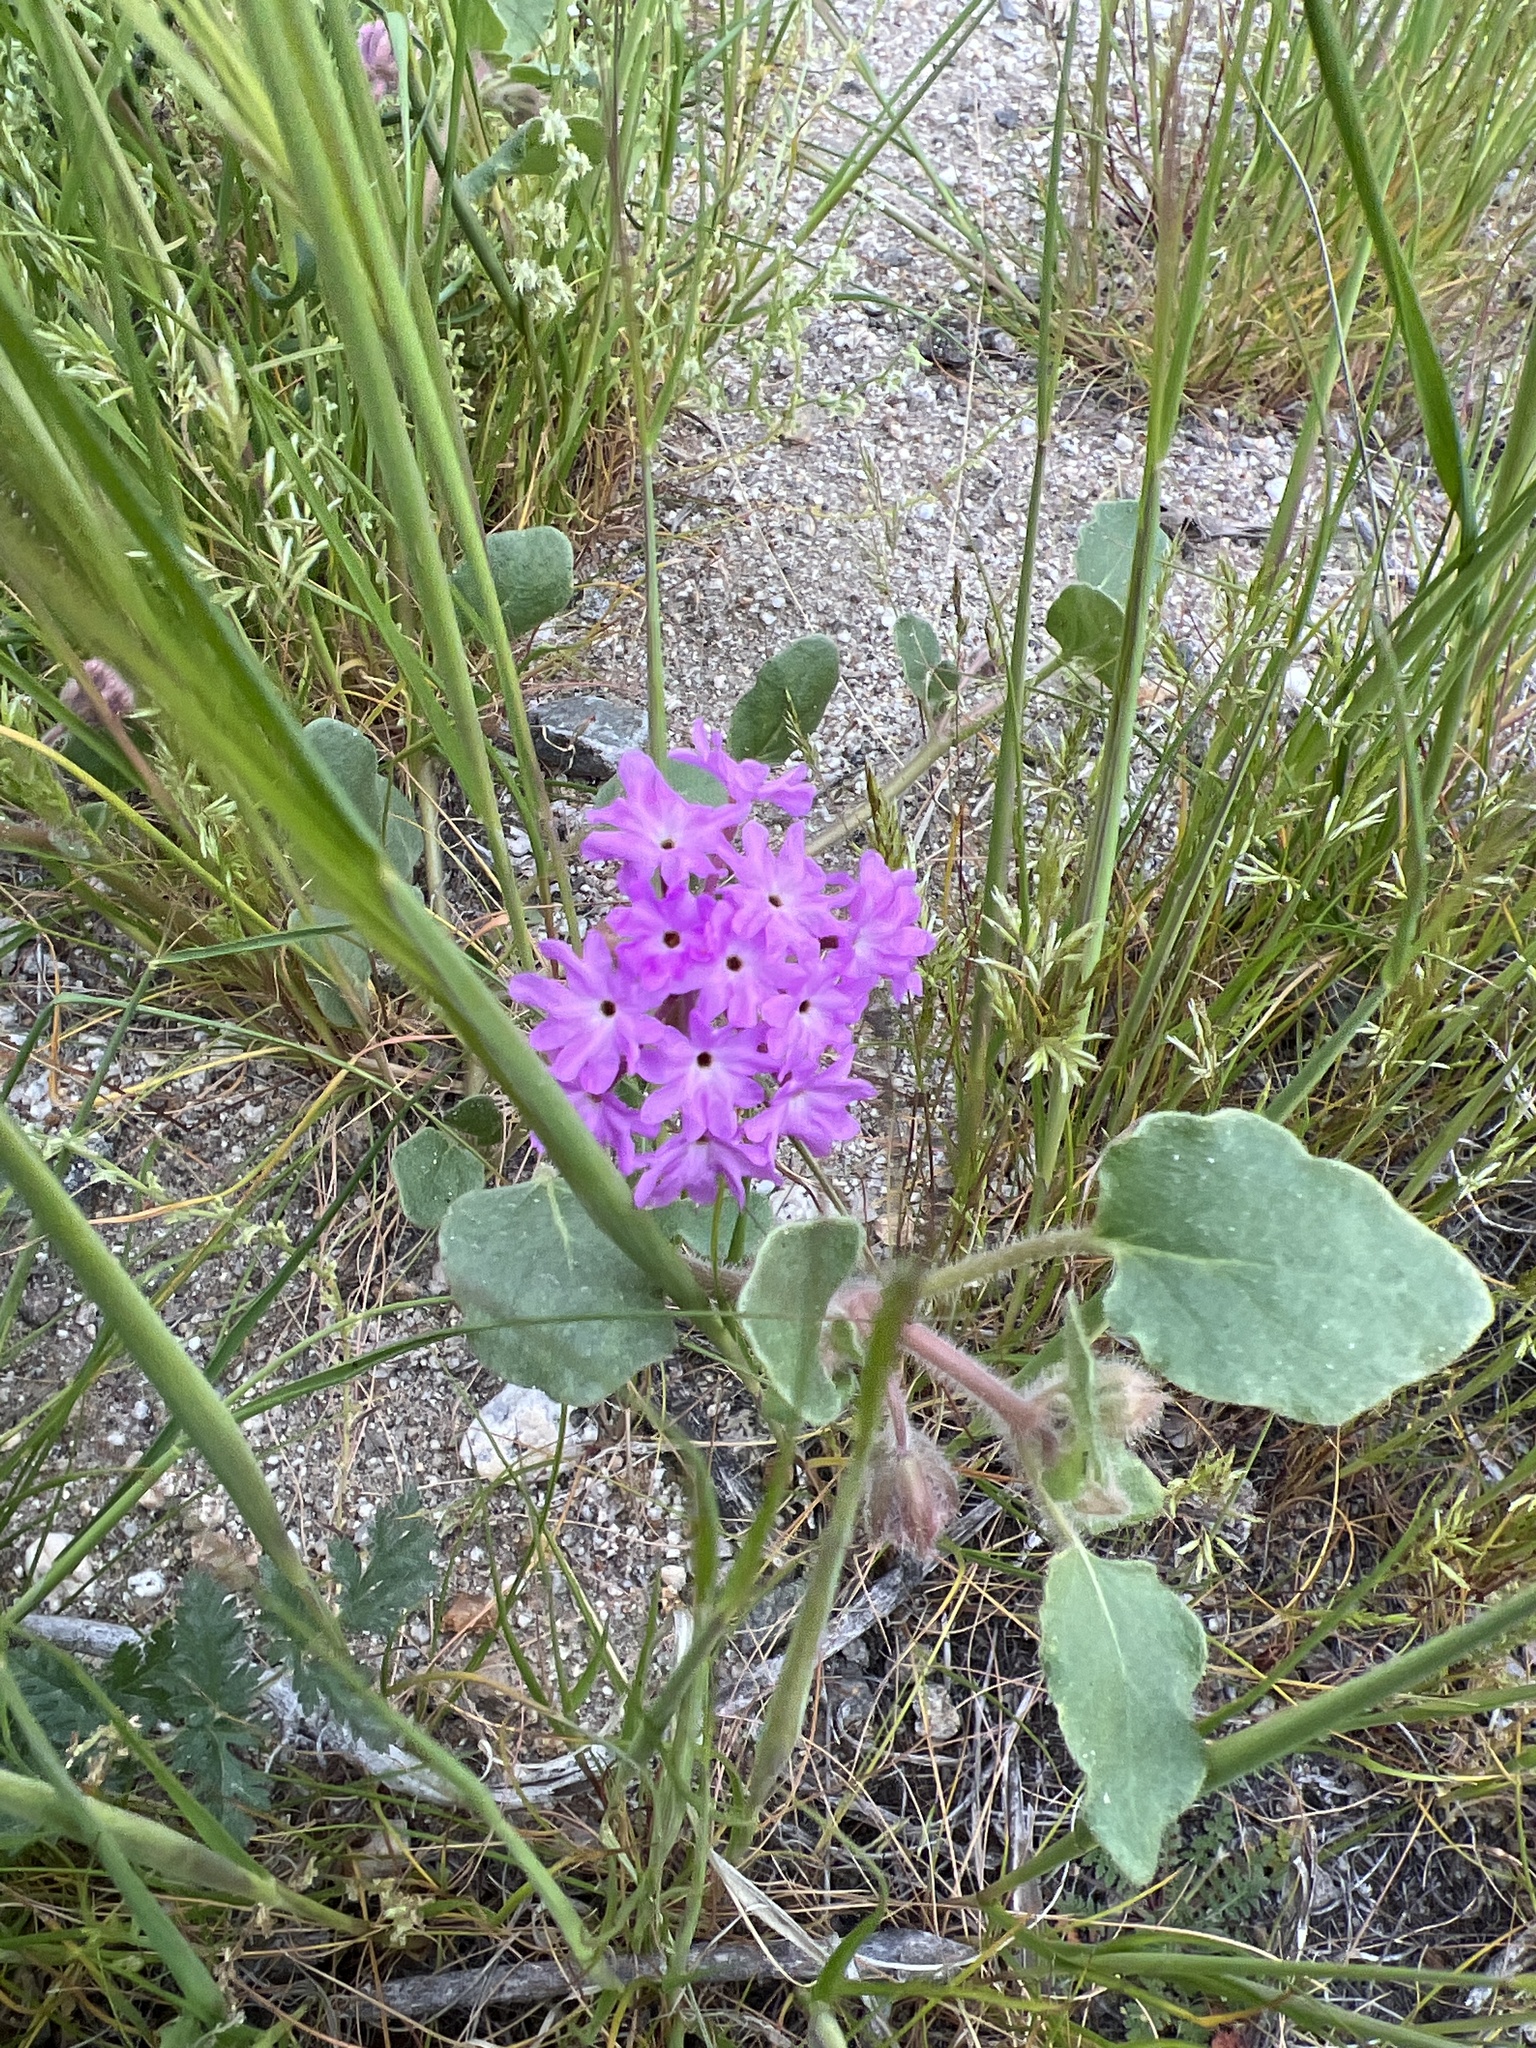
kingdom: Plantae
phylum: Tracheophyta
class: Magnoliopsida
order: Caryophyllales
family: Nyctaginaceae
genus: Abronia
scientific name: Abronia villosa
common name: Desert sand-verbena
